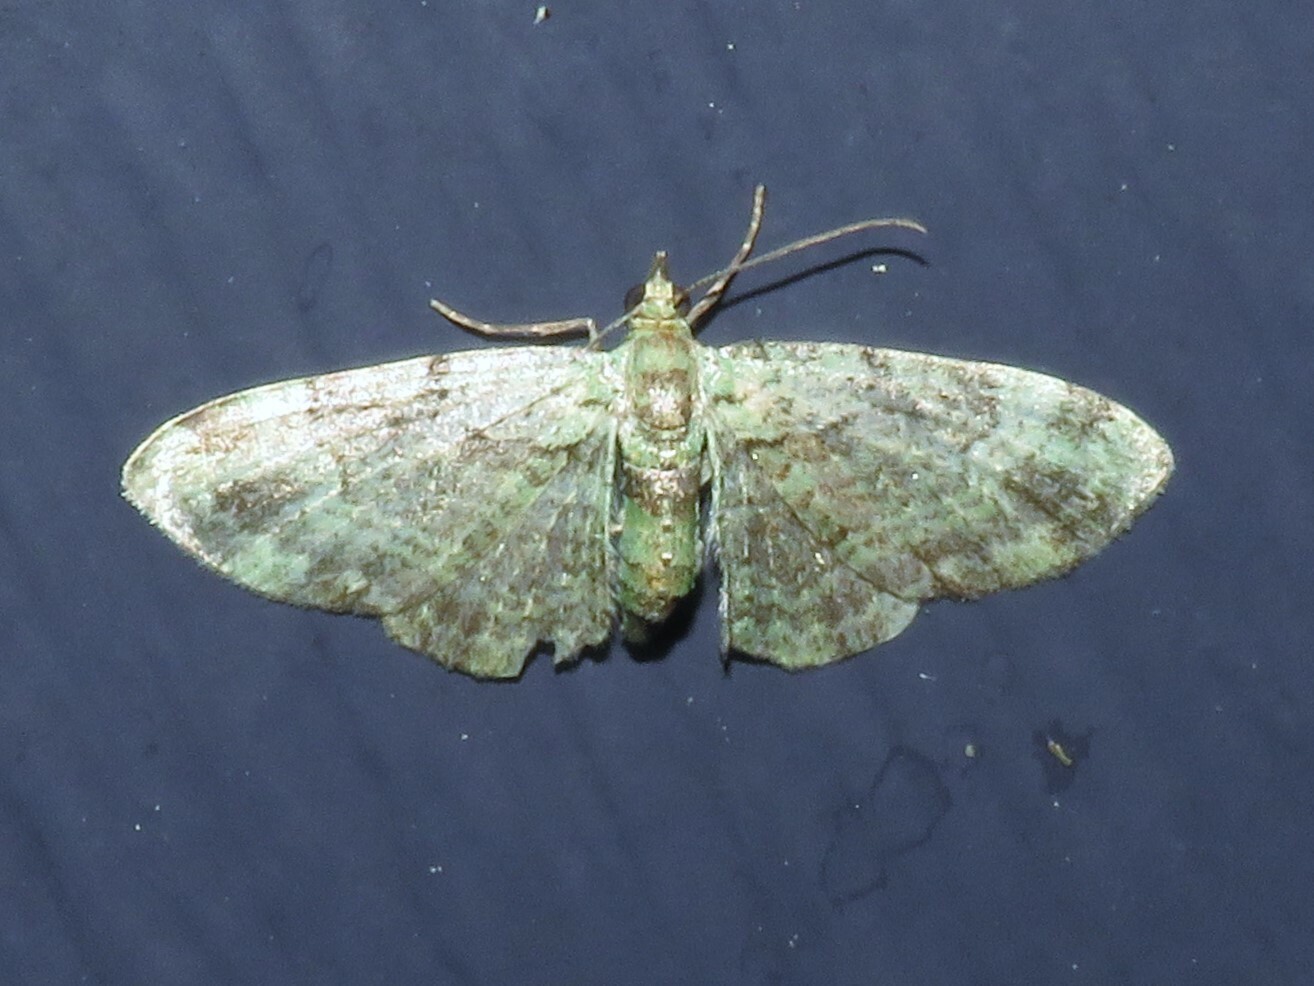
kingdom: Animalia
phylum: Arthropoda
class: Insecta
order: Lepidoptera
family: Geometridae
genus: Pasiphila
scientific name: Pasiphila rectangulata
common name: Green pug
